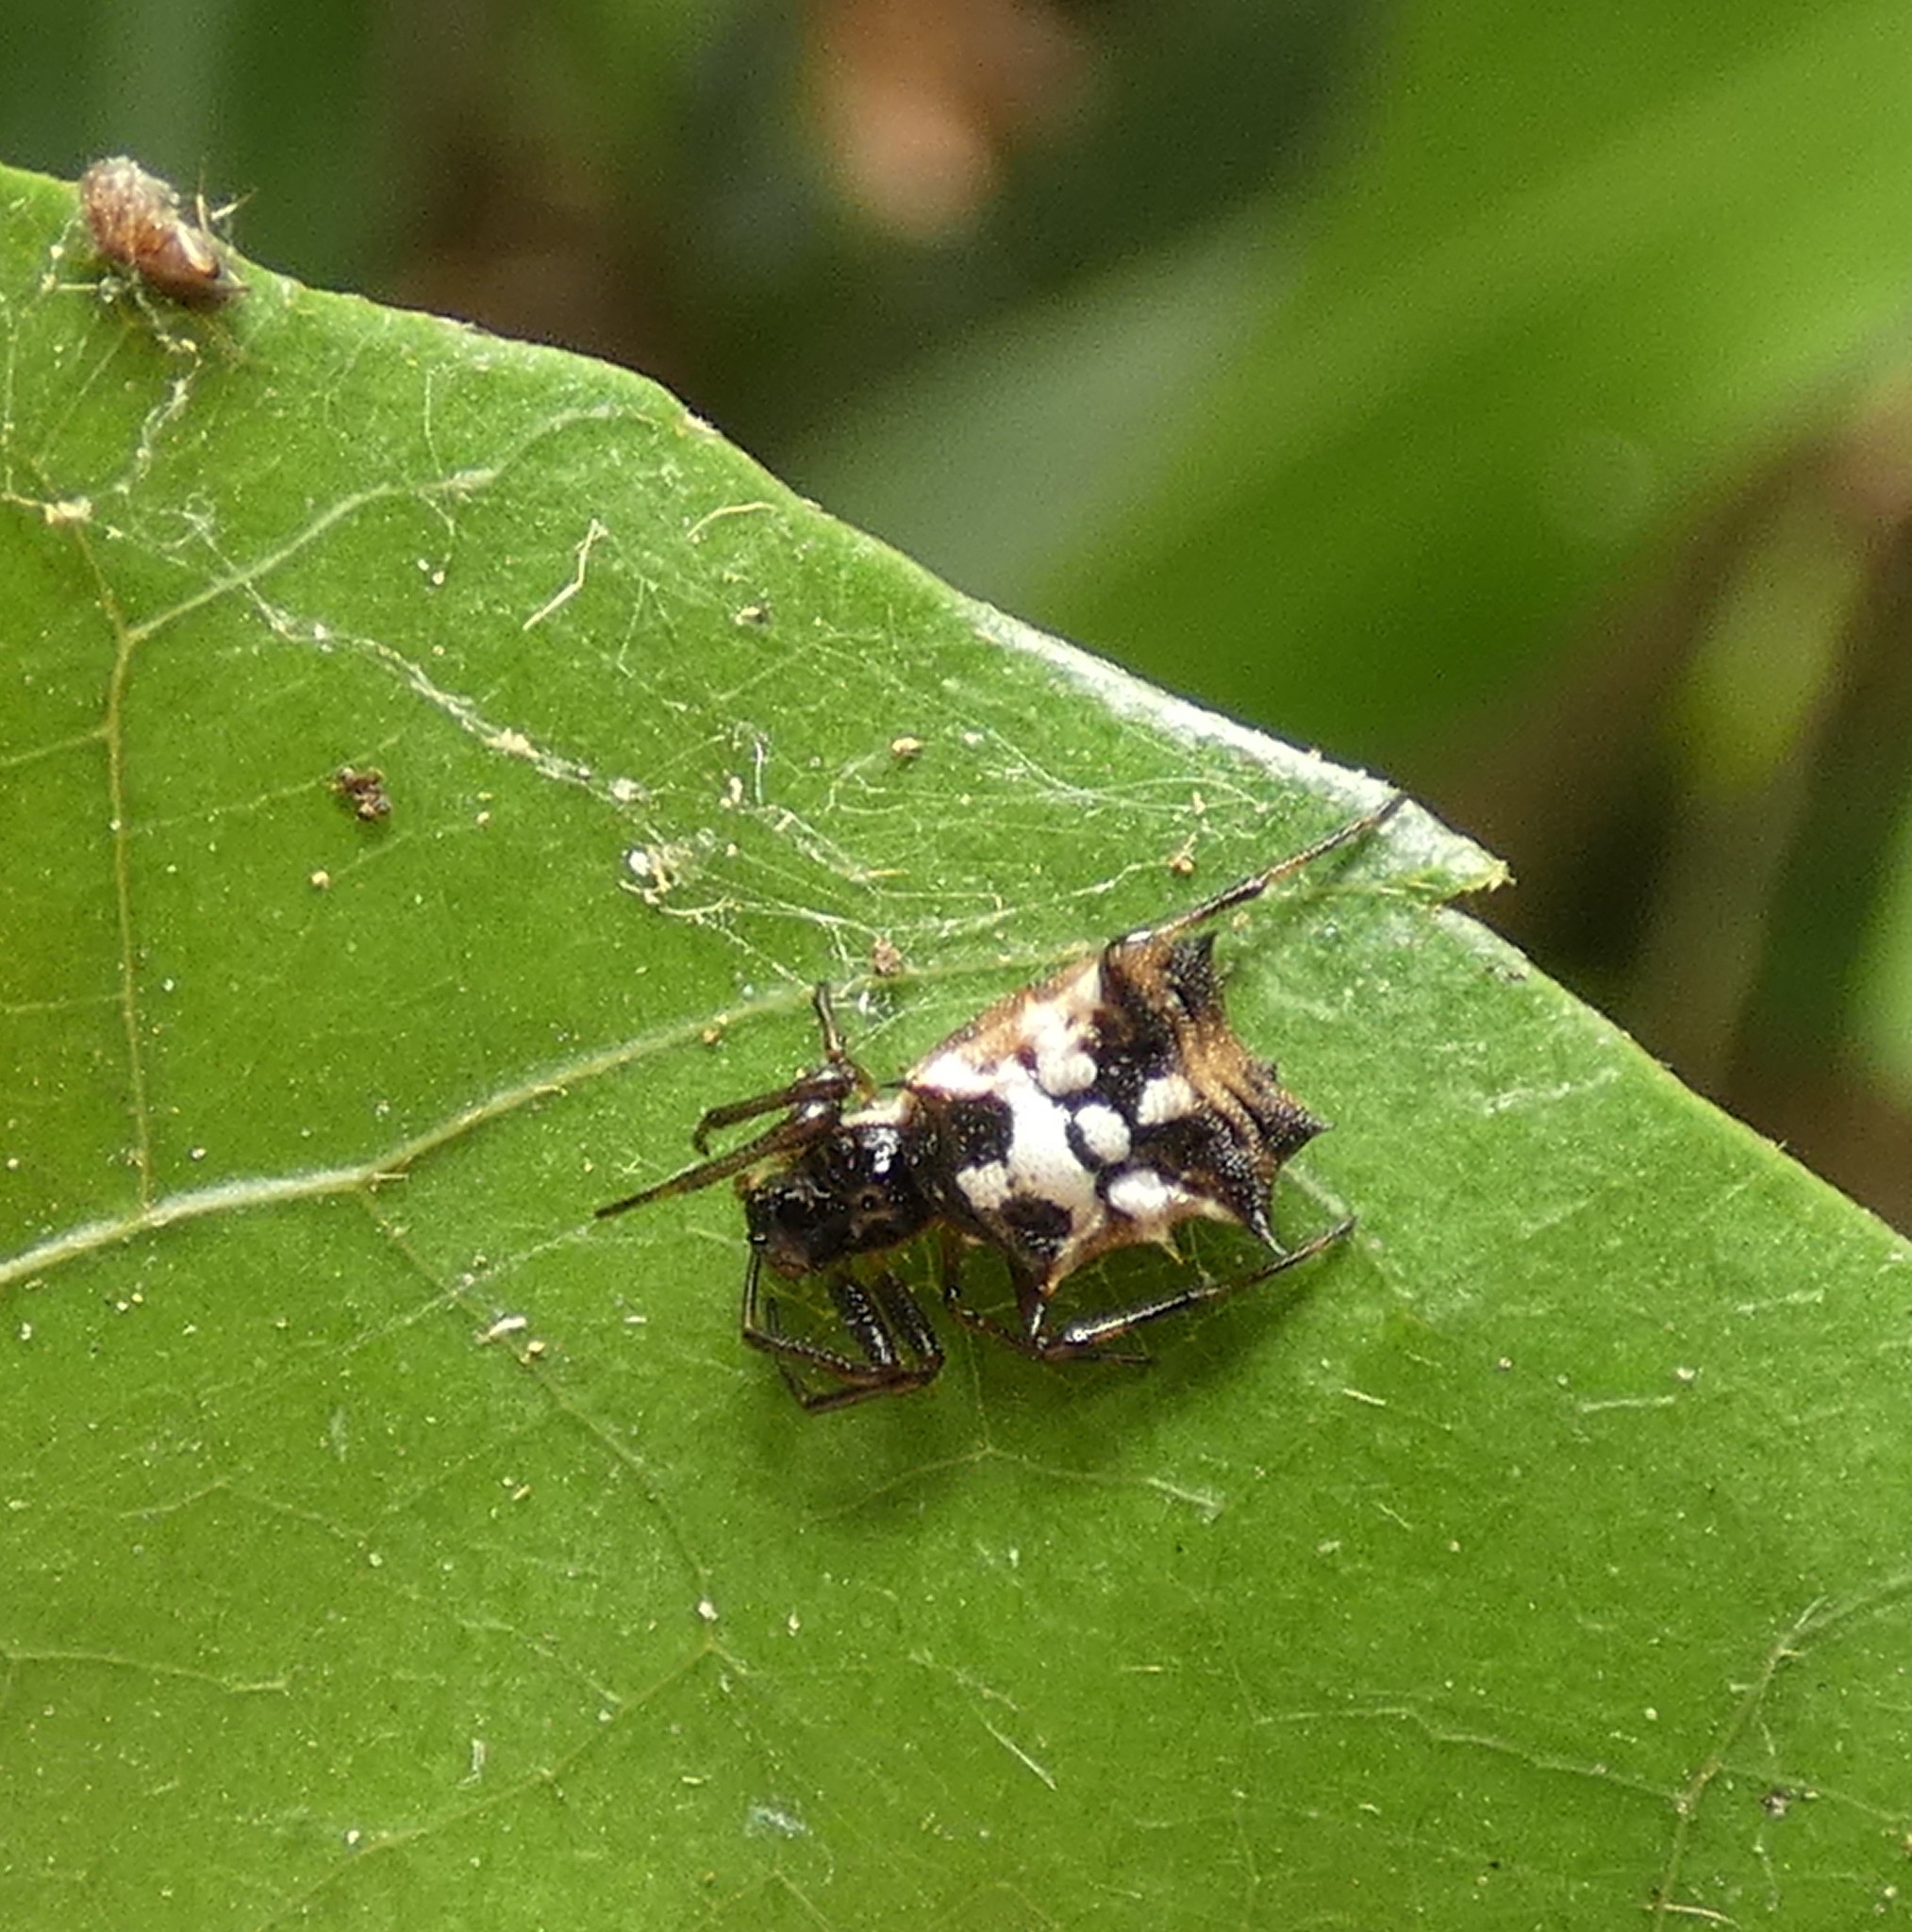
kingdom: Animalia
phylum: Arthropoda
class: Arachnida
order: Araneae
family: Araneidae
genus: Micrathena
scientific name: Micrathena picta
